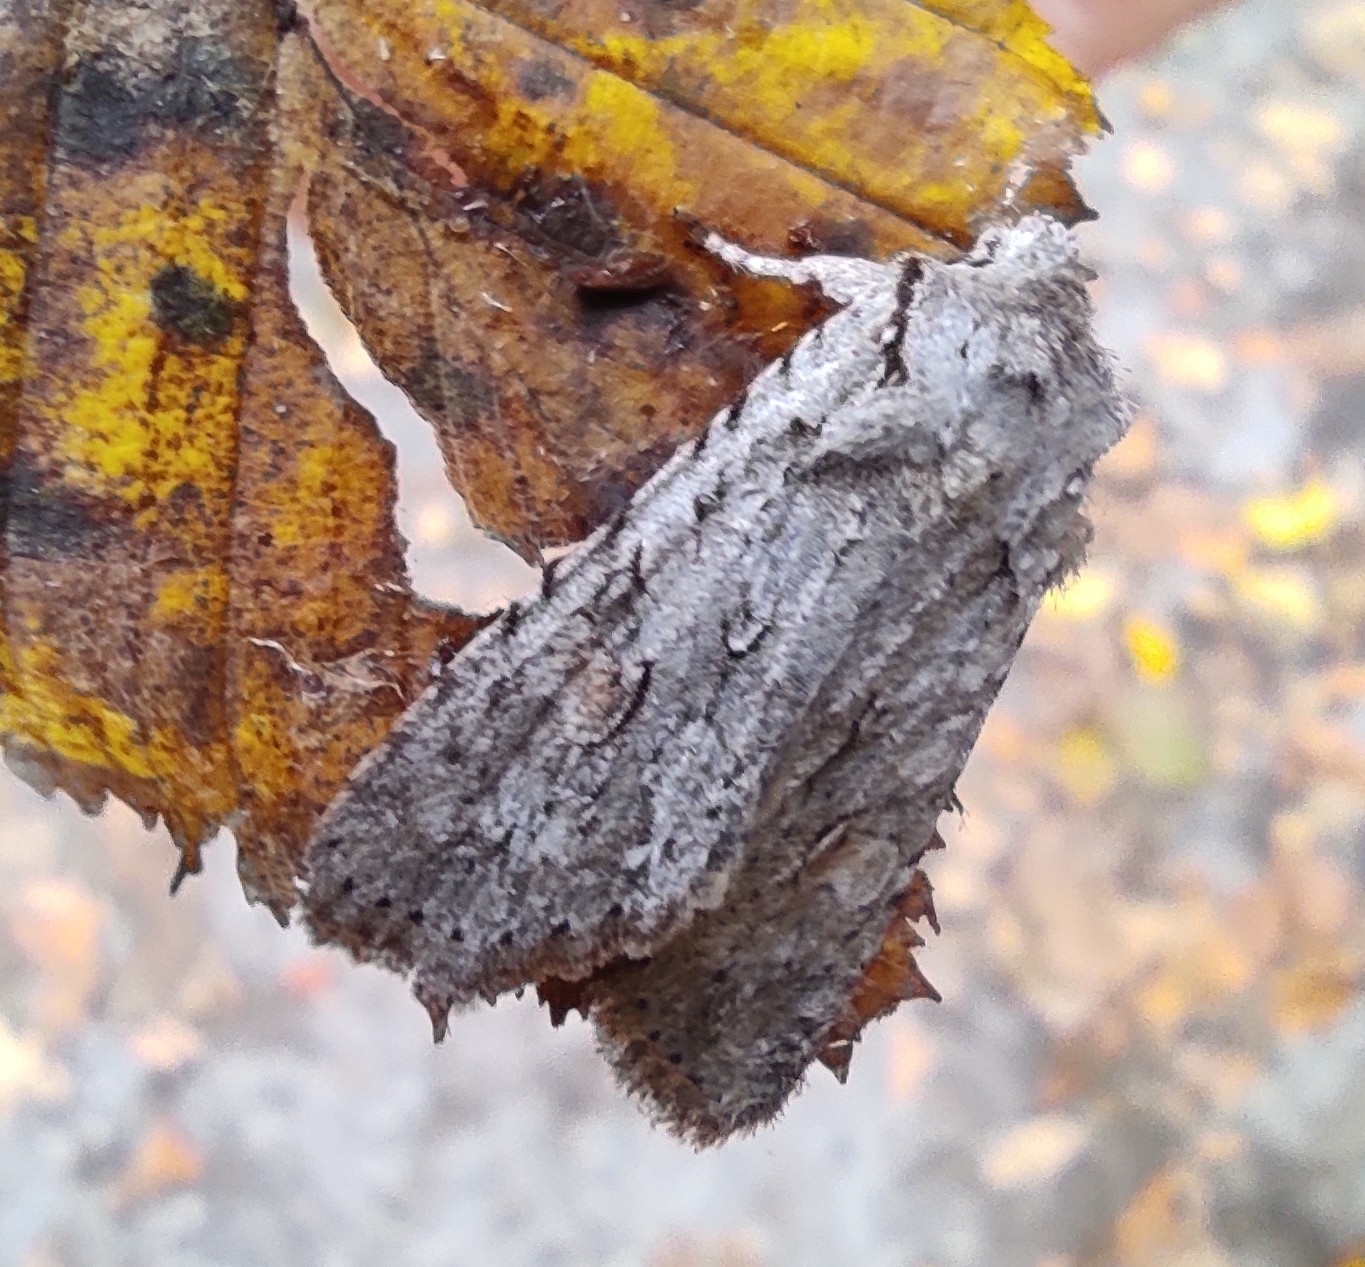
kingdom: Animalia
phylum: Arthropoda
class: Insecta
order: Lepidoptera
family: Noctuidae
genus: Lithophane
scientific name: Lithophane ornitopus
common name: Grey shoulder-knot
